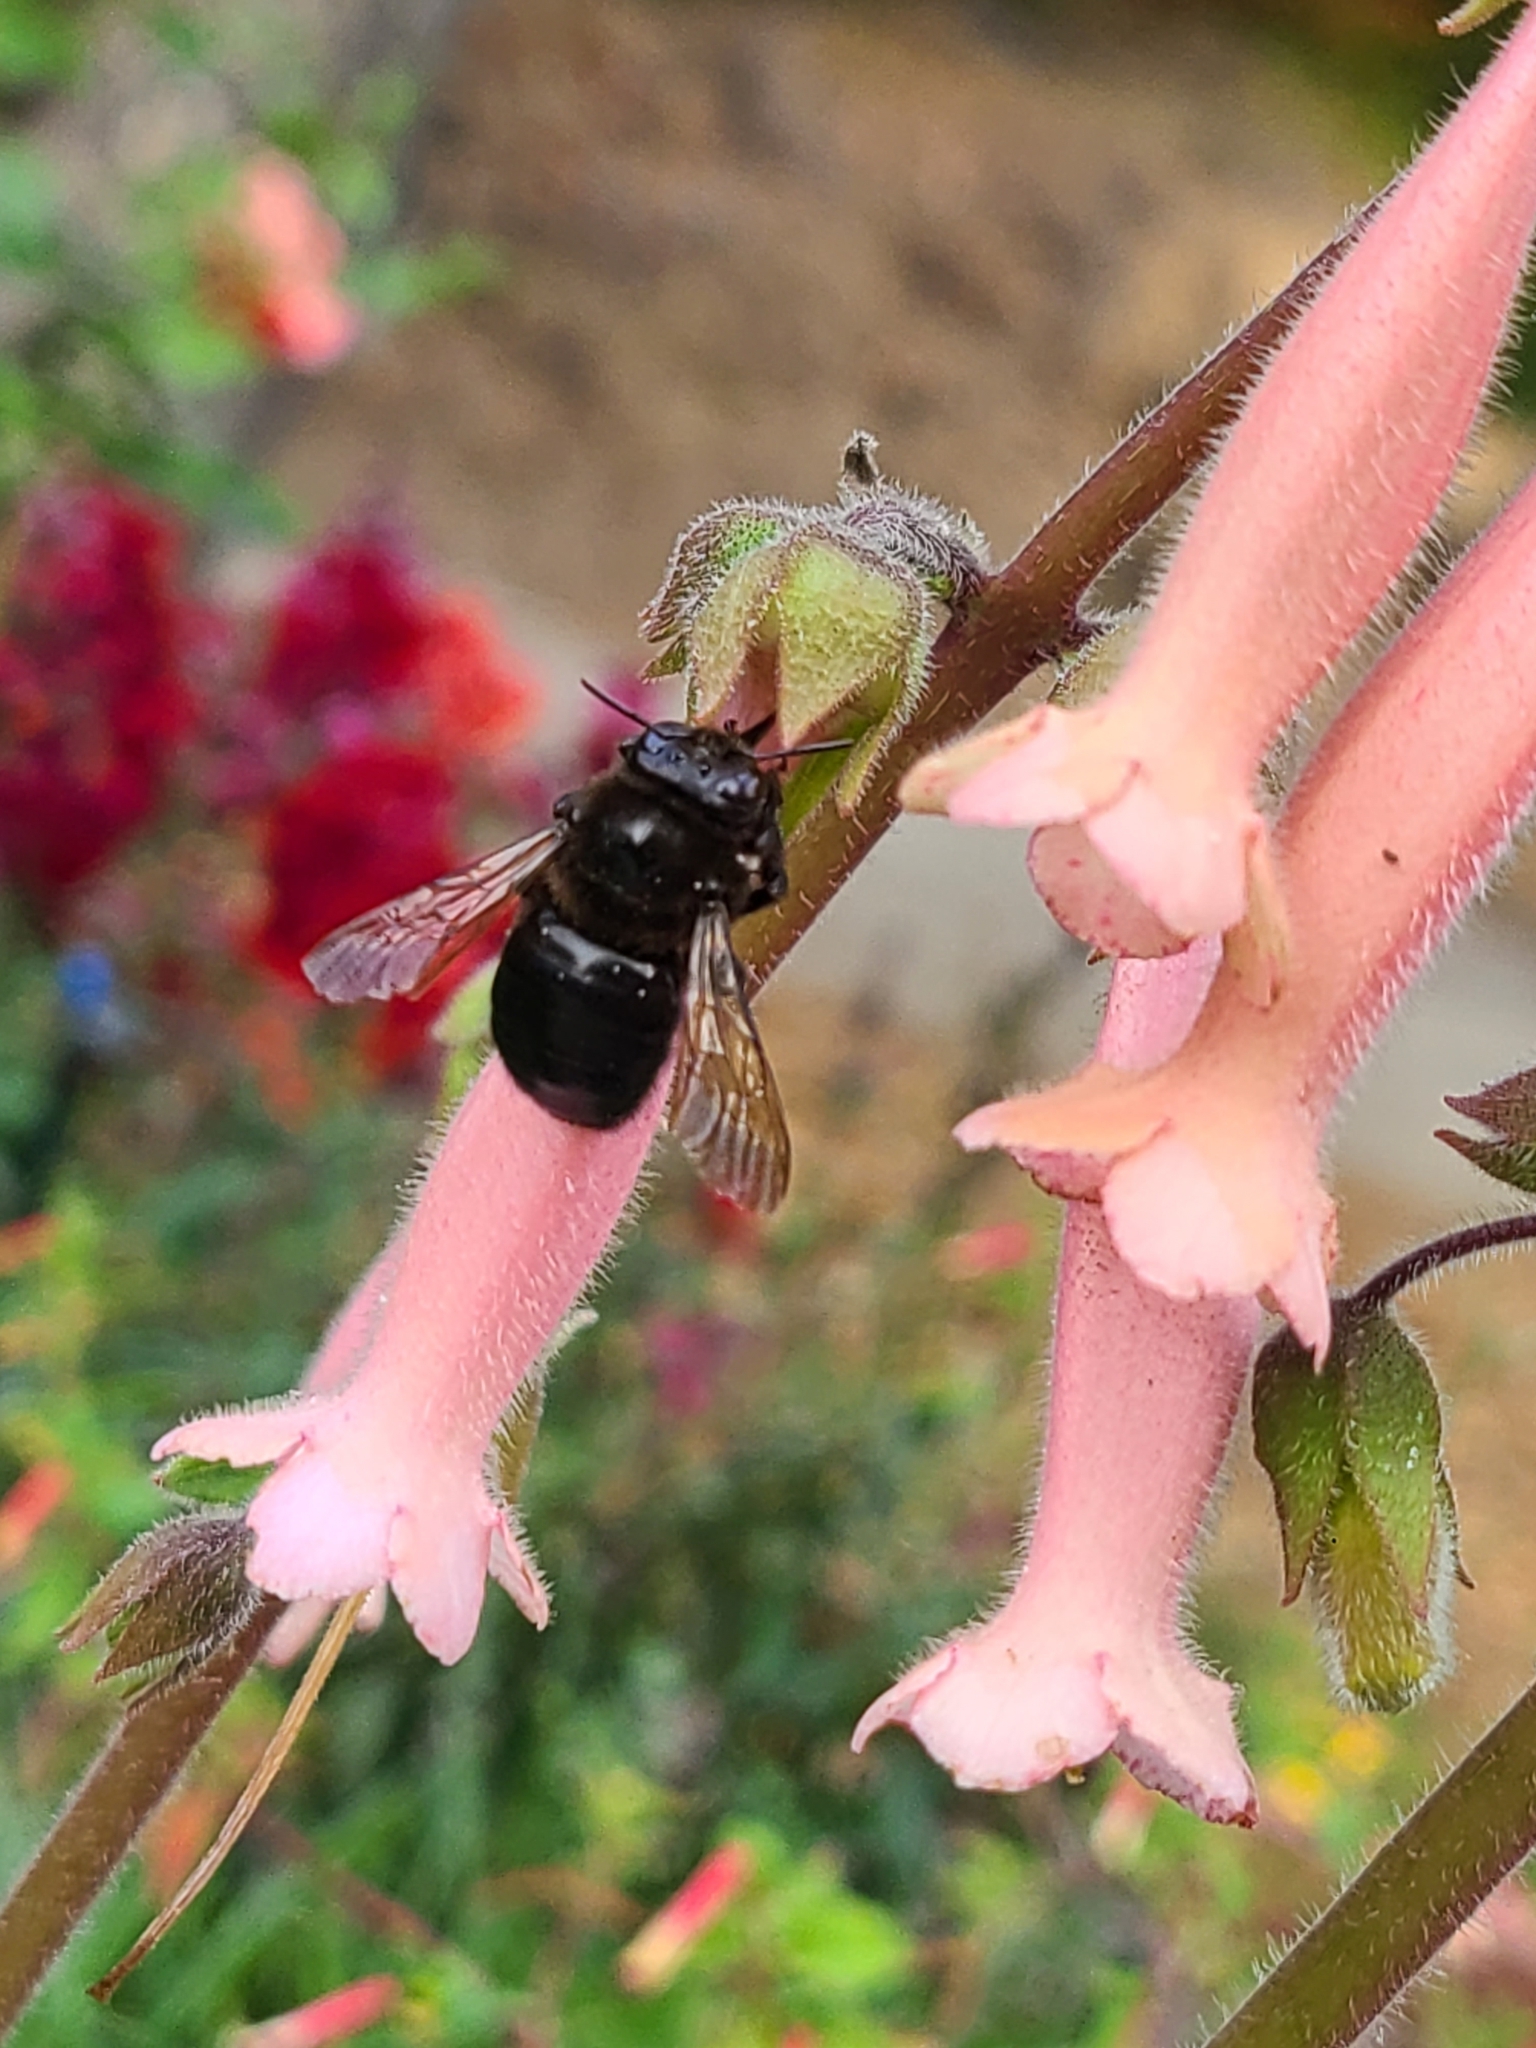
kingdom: Animalia
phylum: Arthropoda
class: Insecta
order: Hymenoptera
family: Apidae
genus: Xylocopa
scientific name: Xylocopa tabaniformis
